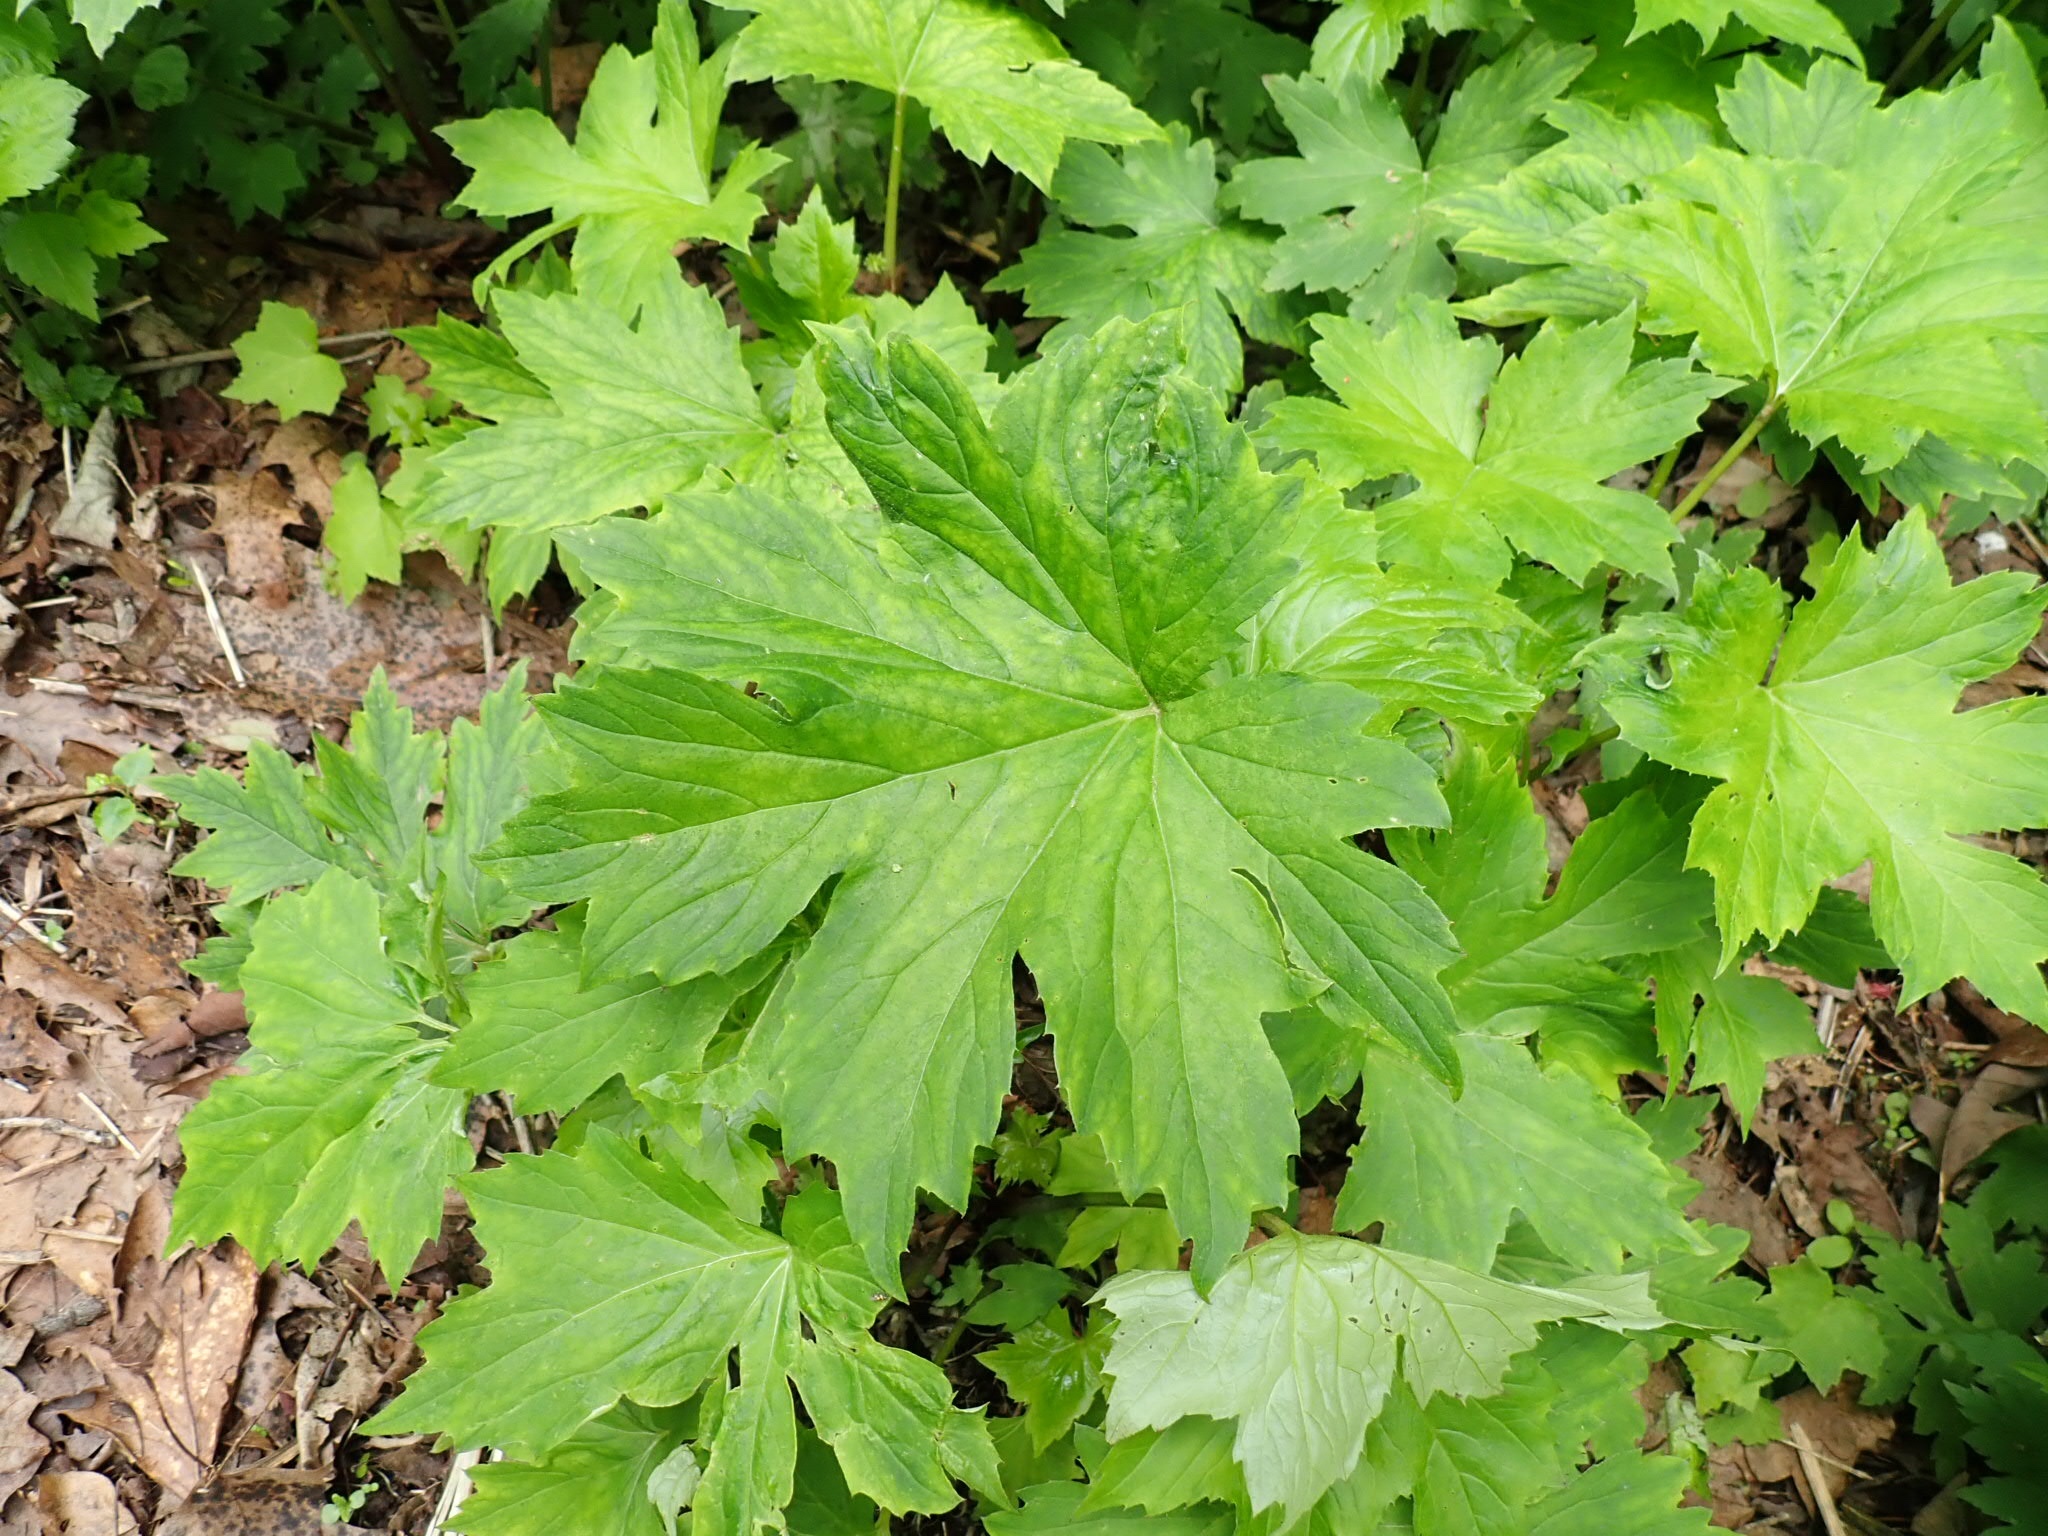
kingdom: Plantae
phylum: Tracheophyta
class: Magnoliopsida
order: Boraginales
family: Hydrophyllaceae
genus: Hydrophyllum
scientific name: Hydrophyllum canadense
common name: Canada waterleaf
